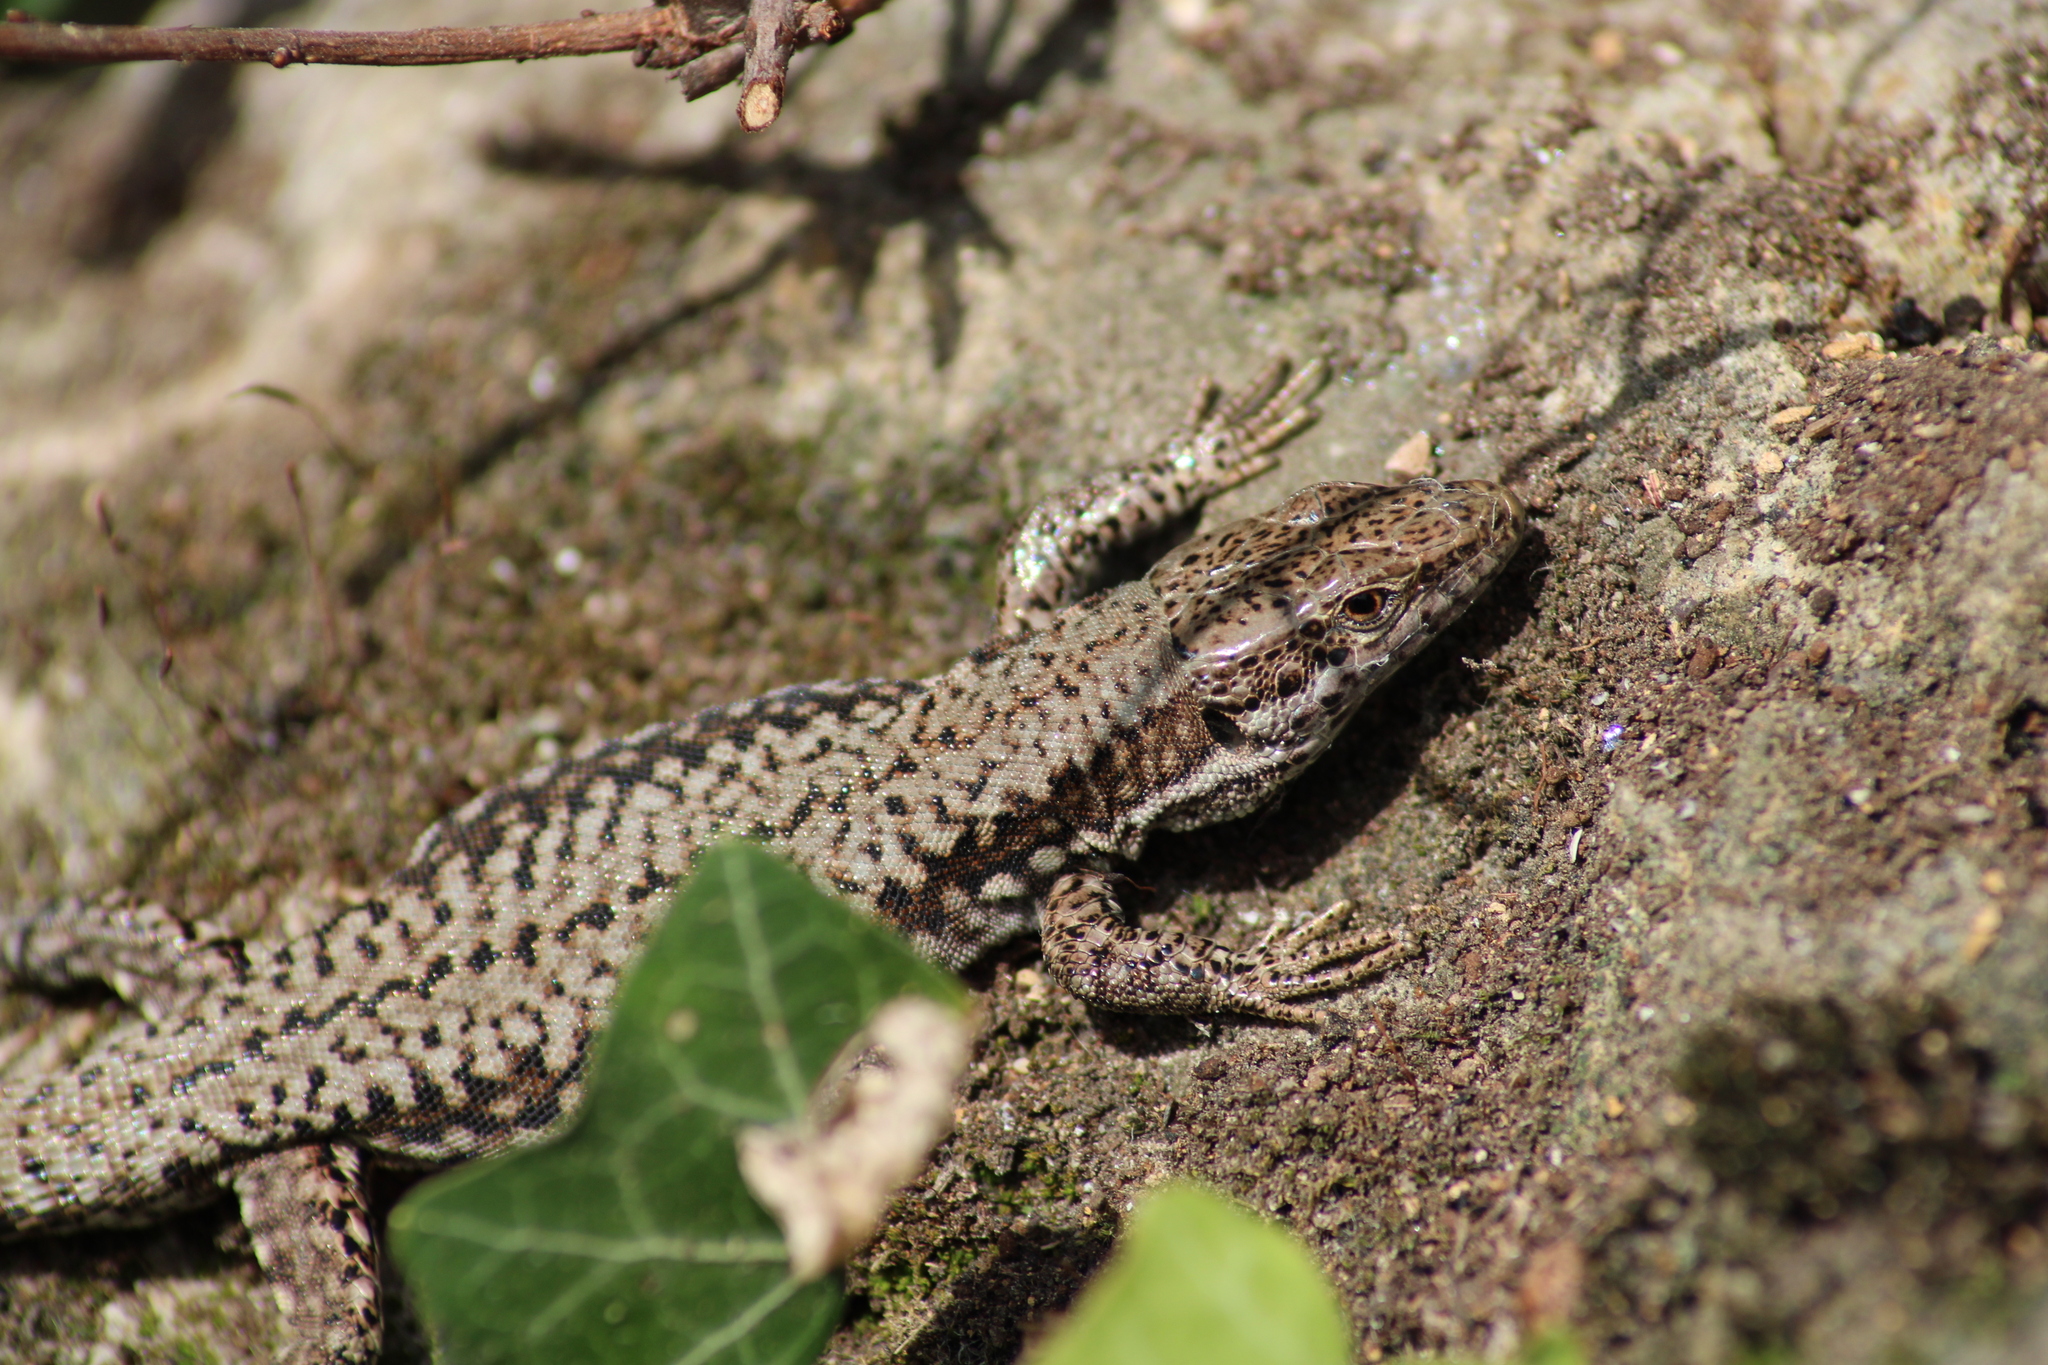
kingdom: Animalia
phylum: Chordata
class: Squamata
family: Lacertidae
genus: Podarcis
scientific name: Podarcis muralis
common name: Common wall lizard
